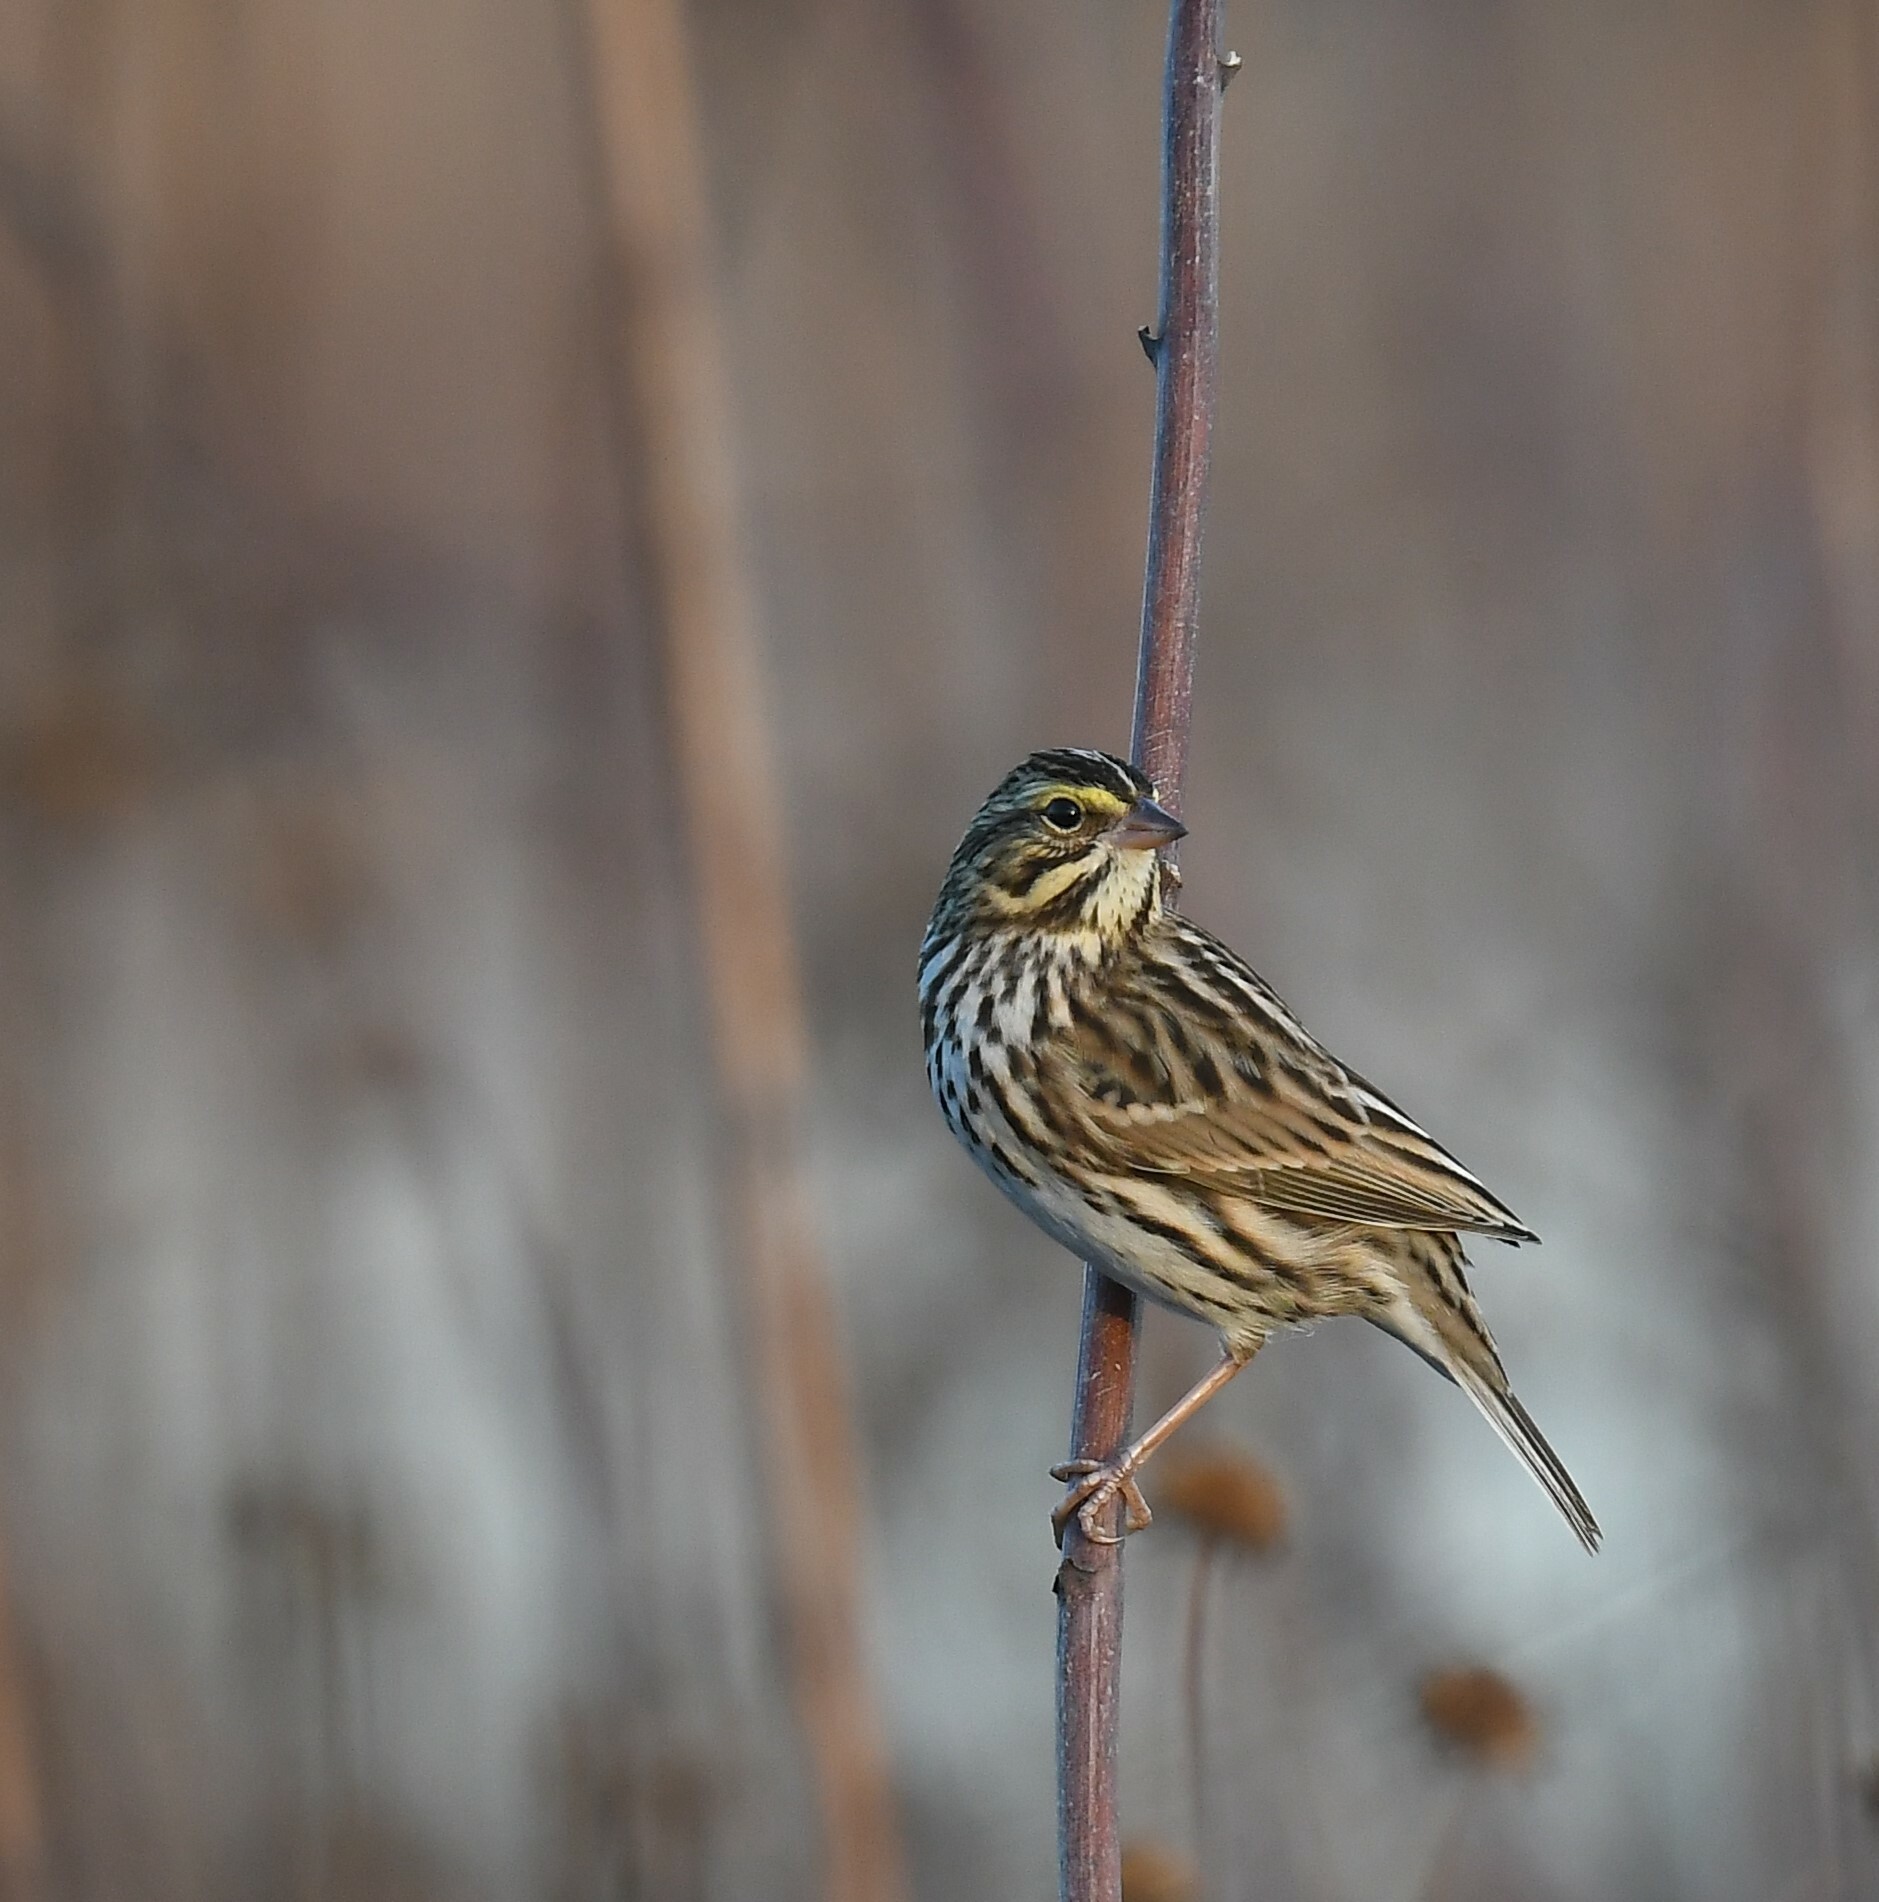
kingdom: Animalia
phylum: Chordata
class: Aves
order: Passeriformes
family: Passerellidae
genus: Passerculus
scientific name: Passerculus sandwichensis
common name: Savannah sparrow
